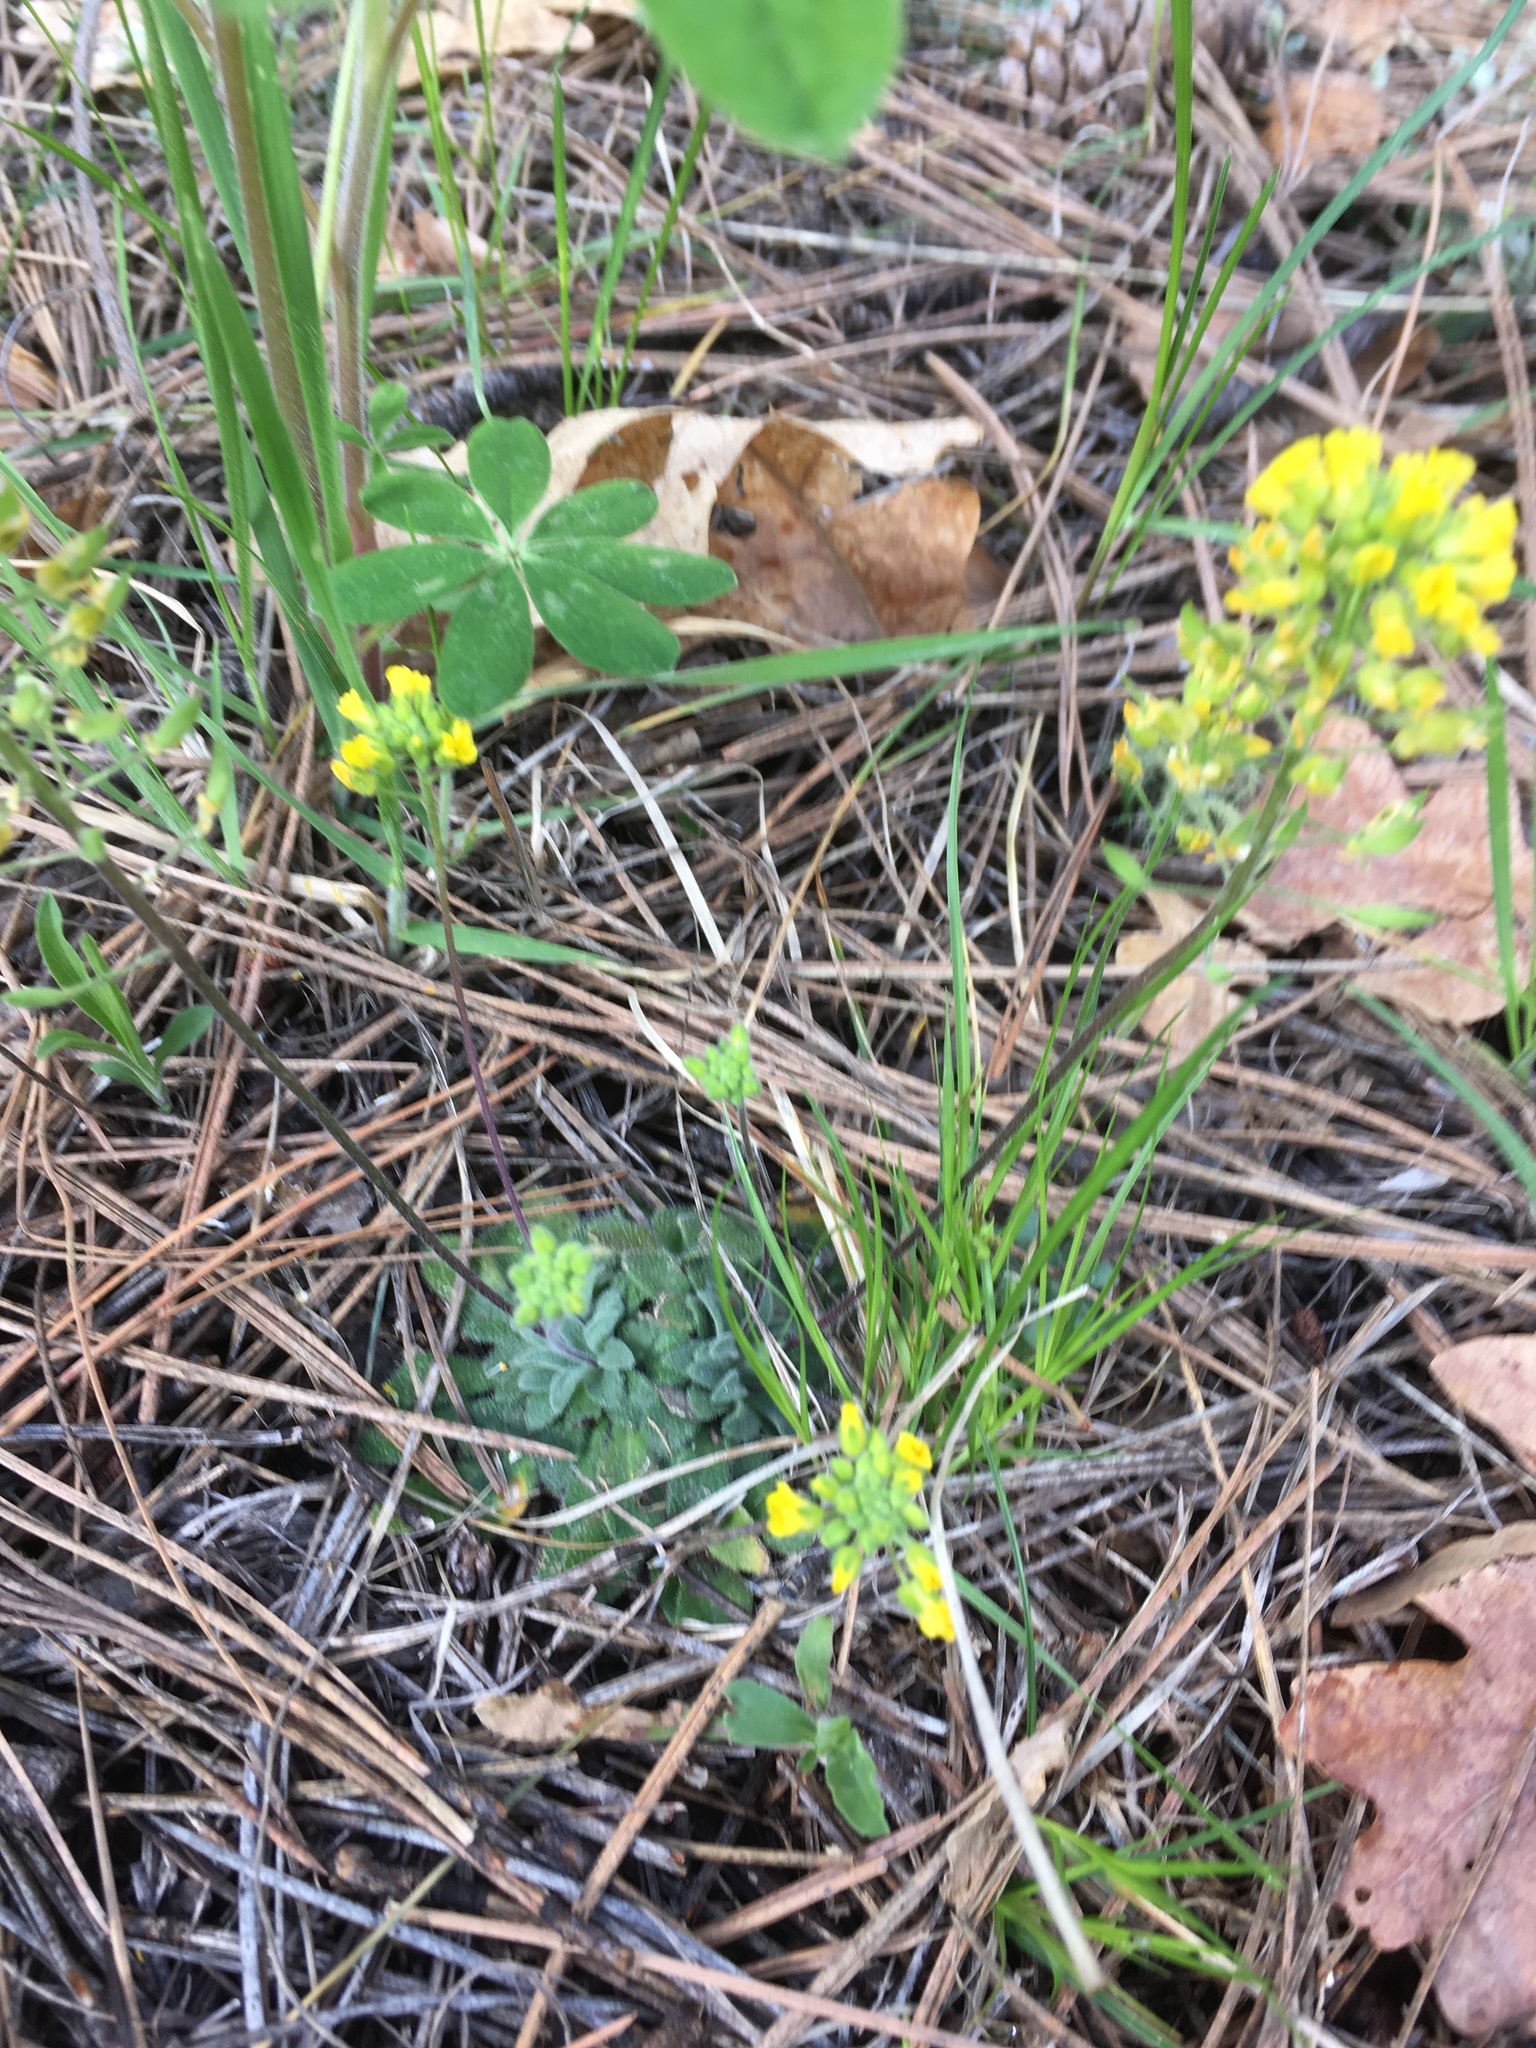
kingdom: Plantae
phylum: Tracheophyta
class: Magnoliopsida
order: Brassicales
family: Brassicaceae
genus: Draba
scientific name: Draba asprella
